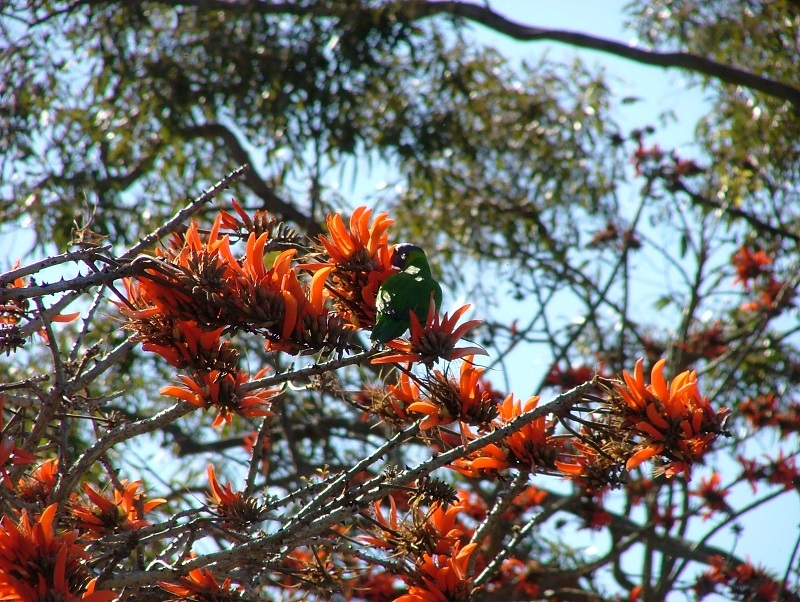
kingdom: Animalia
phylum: Chordata
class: Aves
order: Psittaciformes
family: Psittacidae
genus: Trichoglossus
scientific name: Trichoglossus haematodus
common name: Coconut lorikeet
